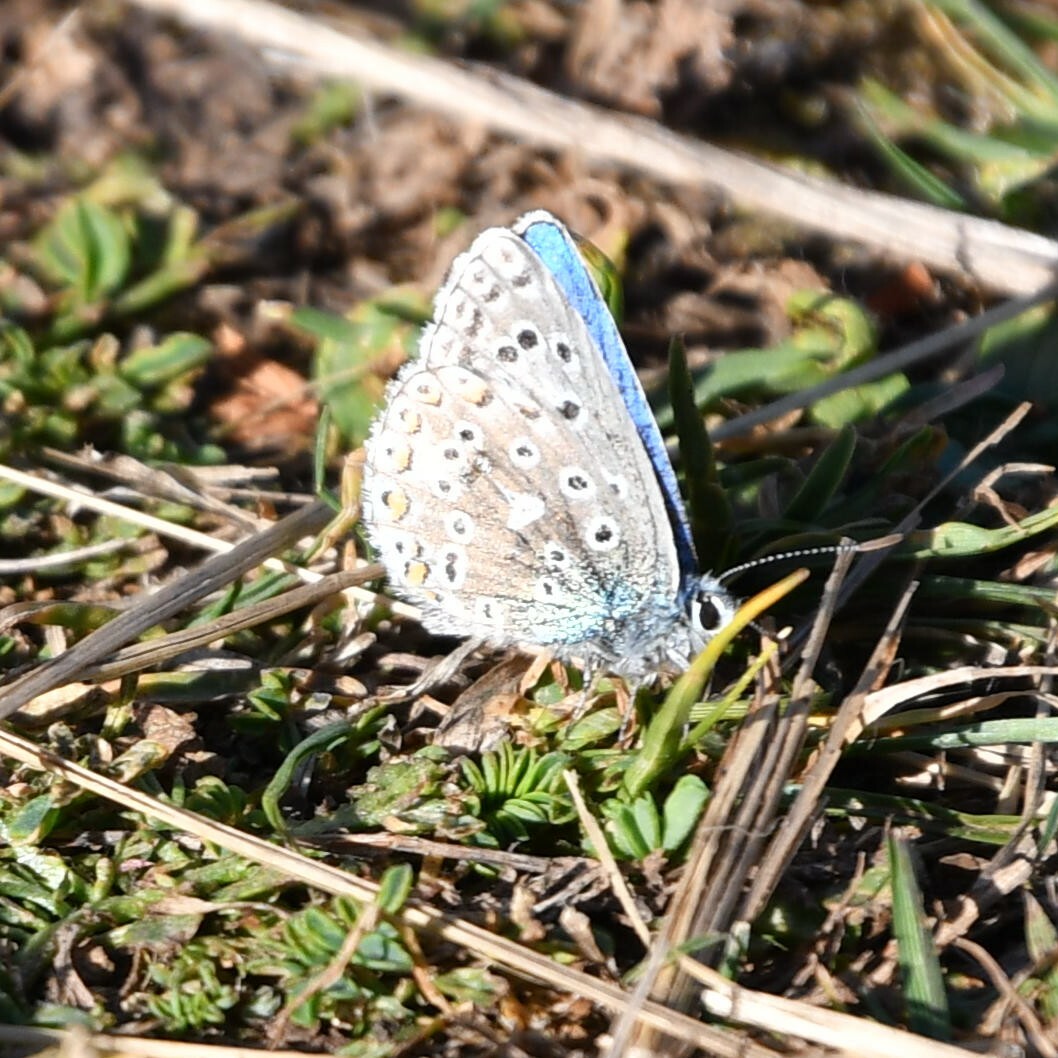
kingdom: Animalia
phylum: Arthropoda
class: Insecta
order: Lepidoptera
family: Lycaenidae
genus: Lysandra
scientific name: Lysandra bellargus
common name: Adonis blue
